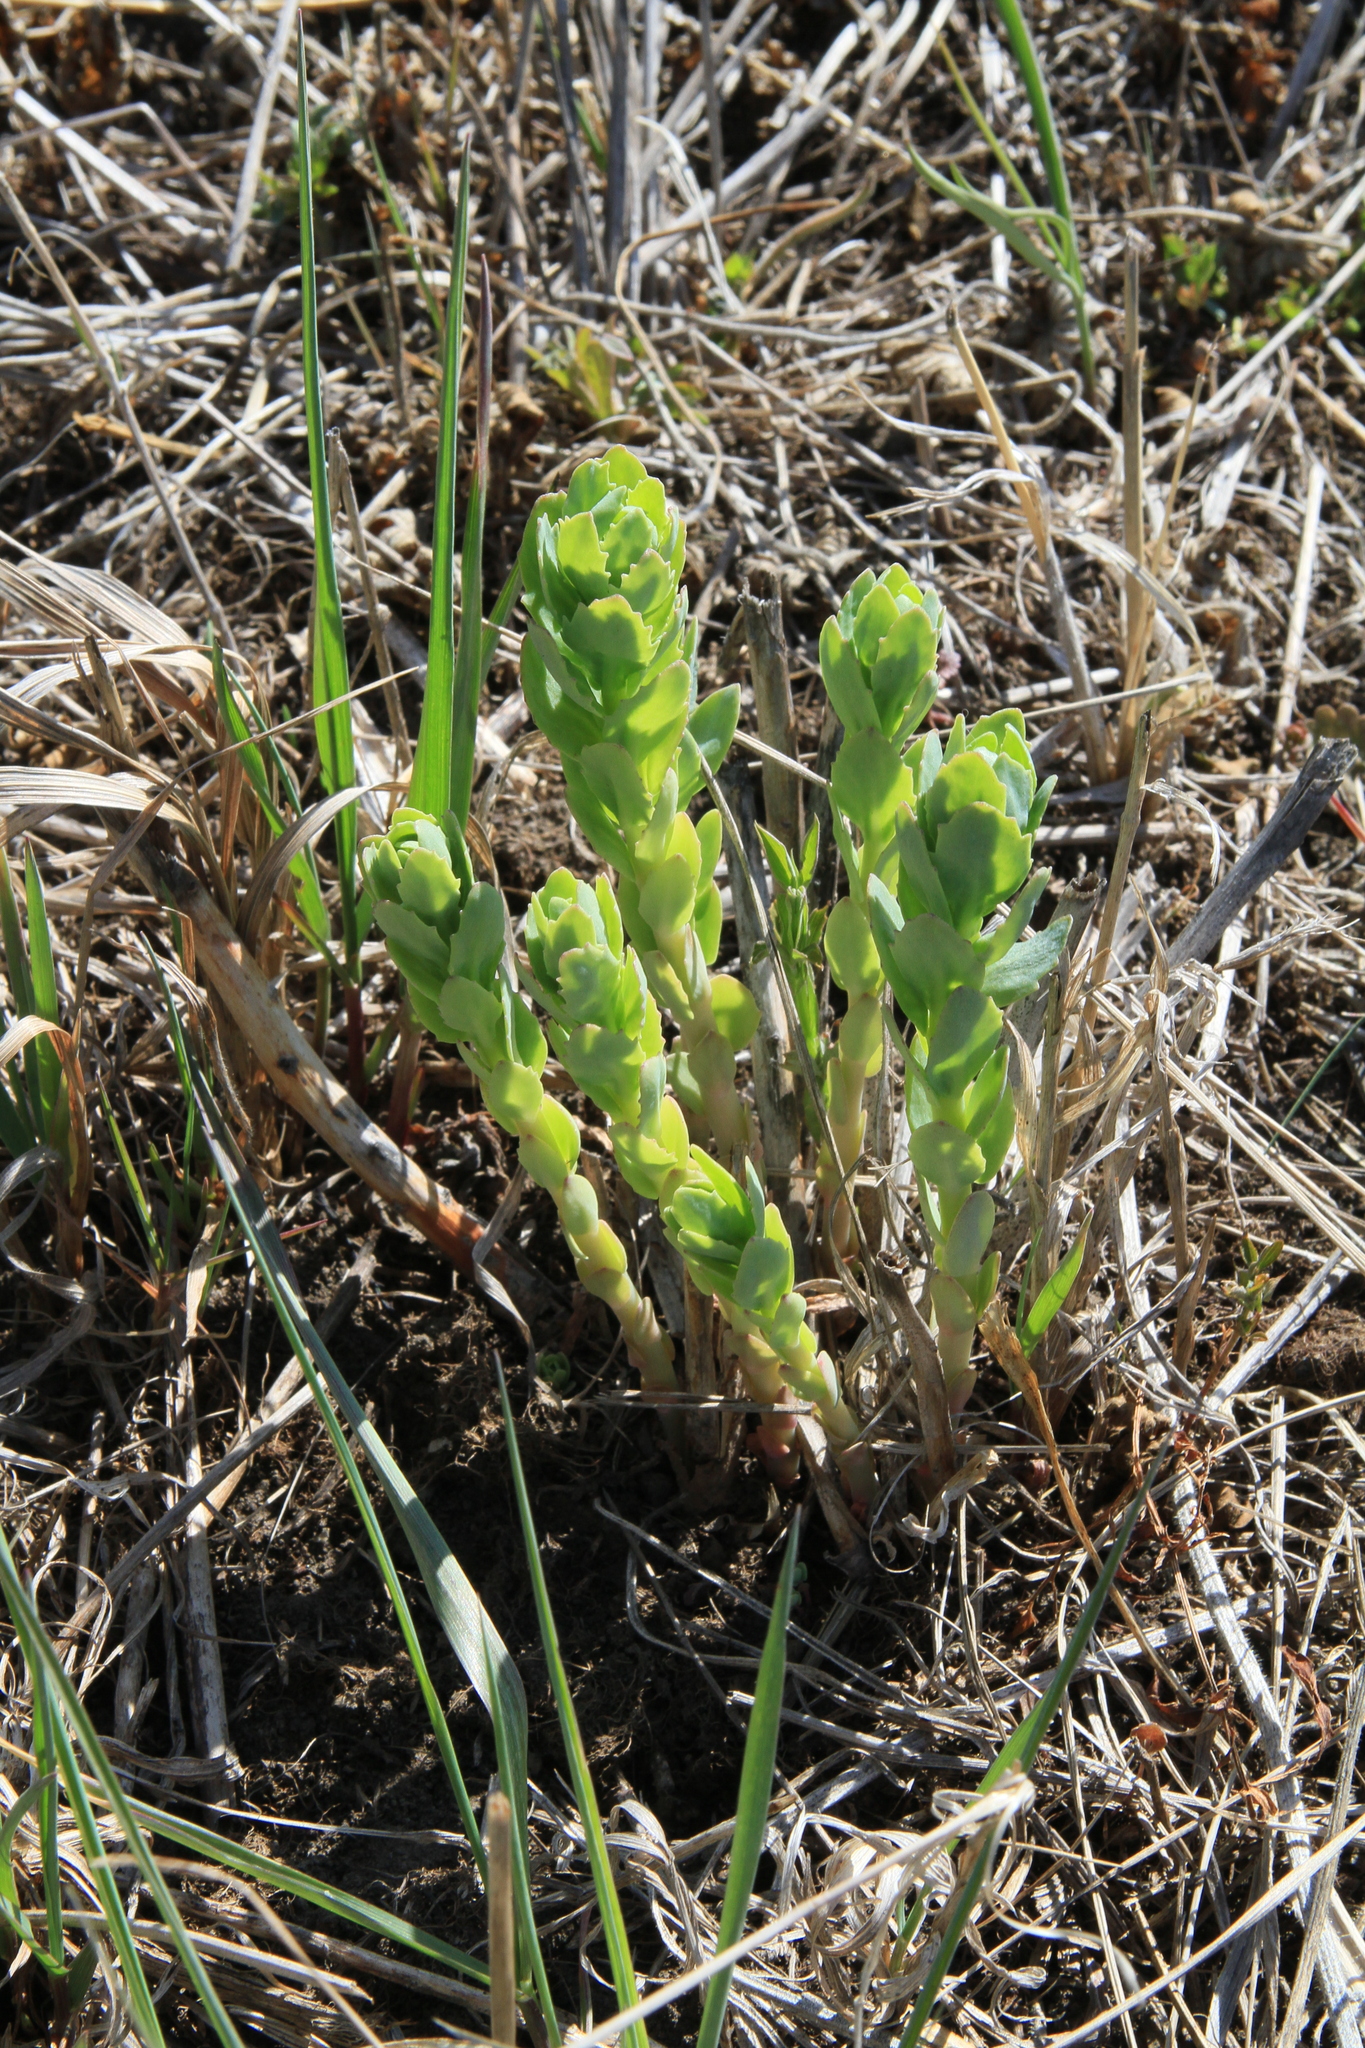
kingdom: Plantae
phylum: Tracheophyta
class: Magnoliopsida
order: Saxifragales
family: Crassulaceae
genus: Hylotelephium
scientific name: Hylotelephium telephium
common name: Live-forever
